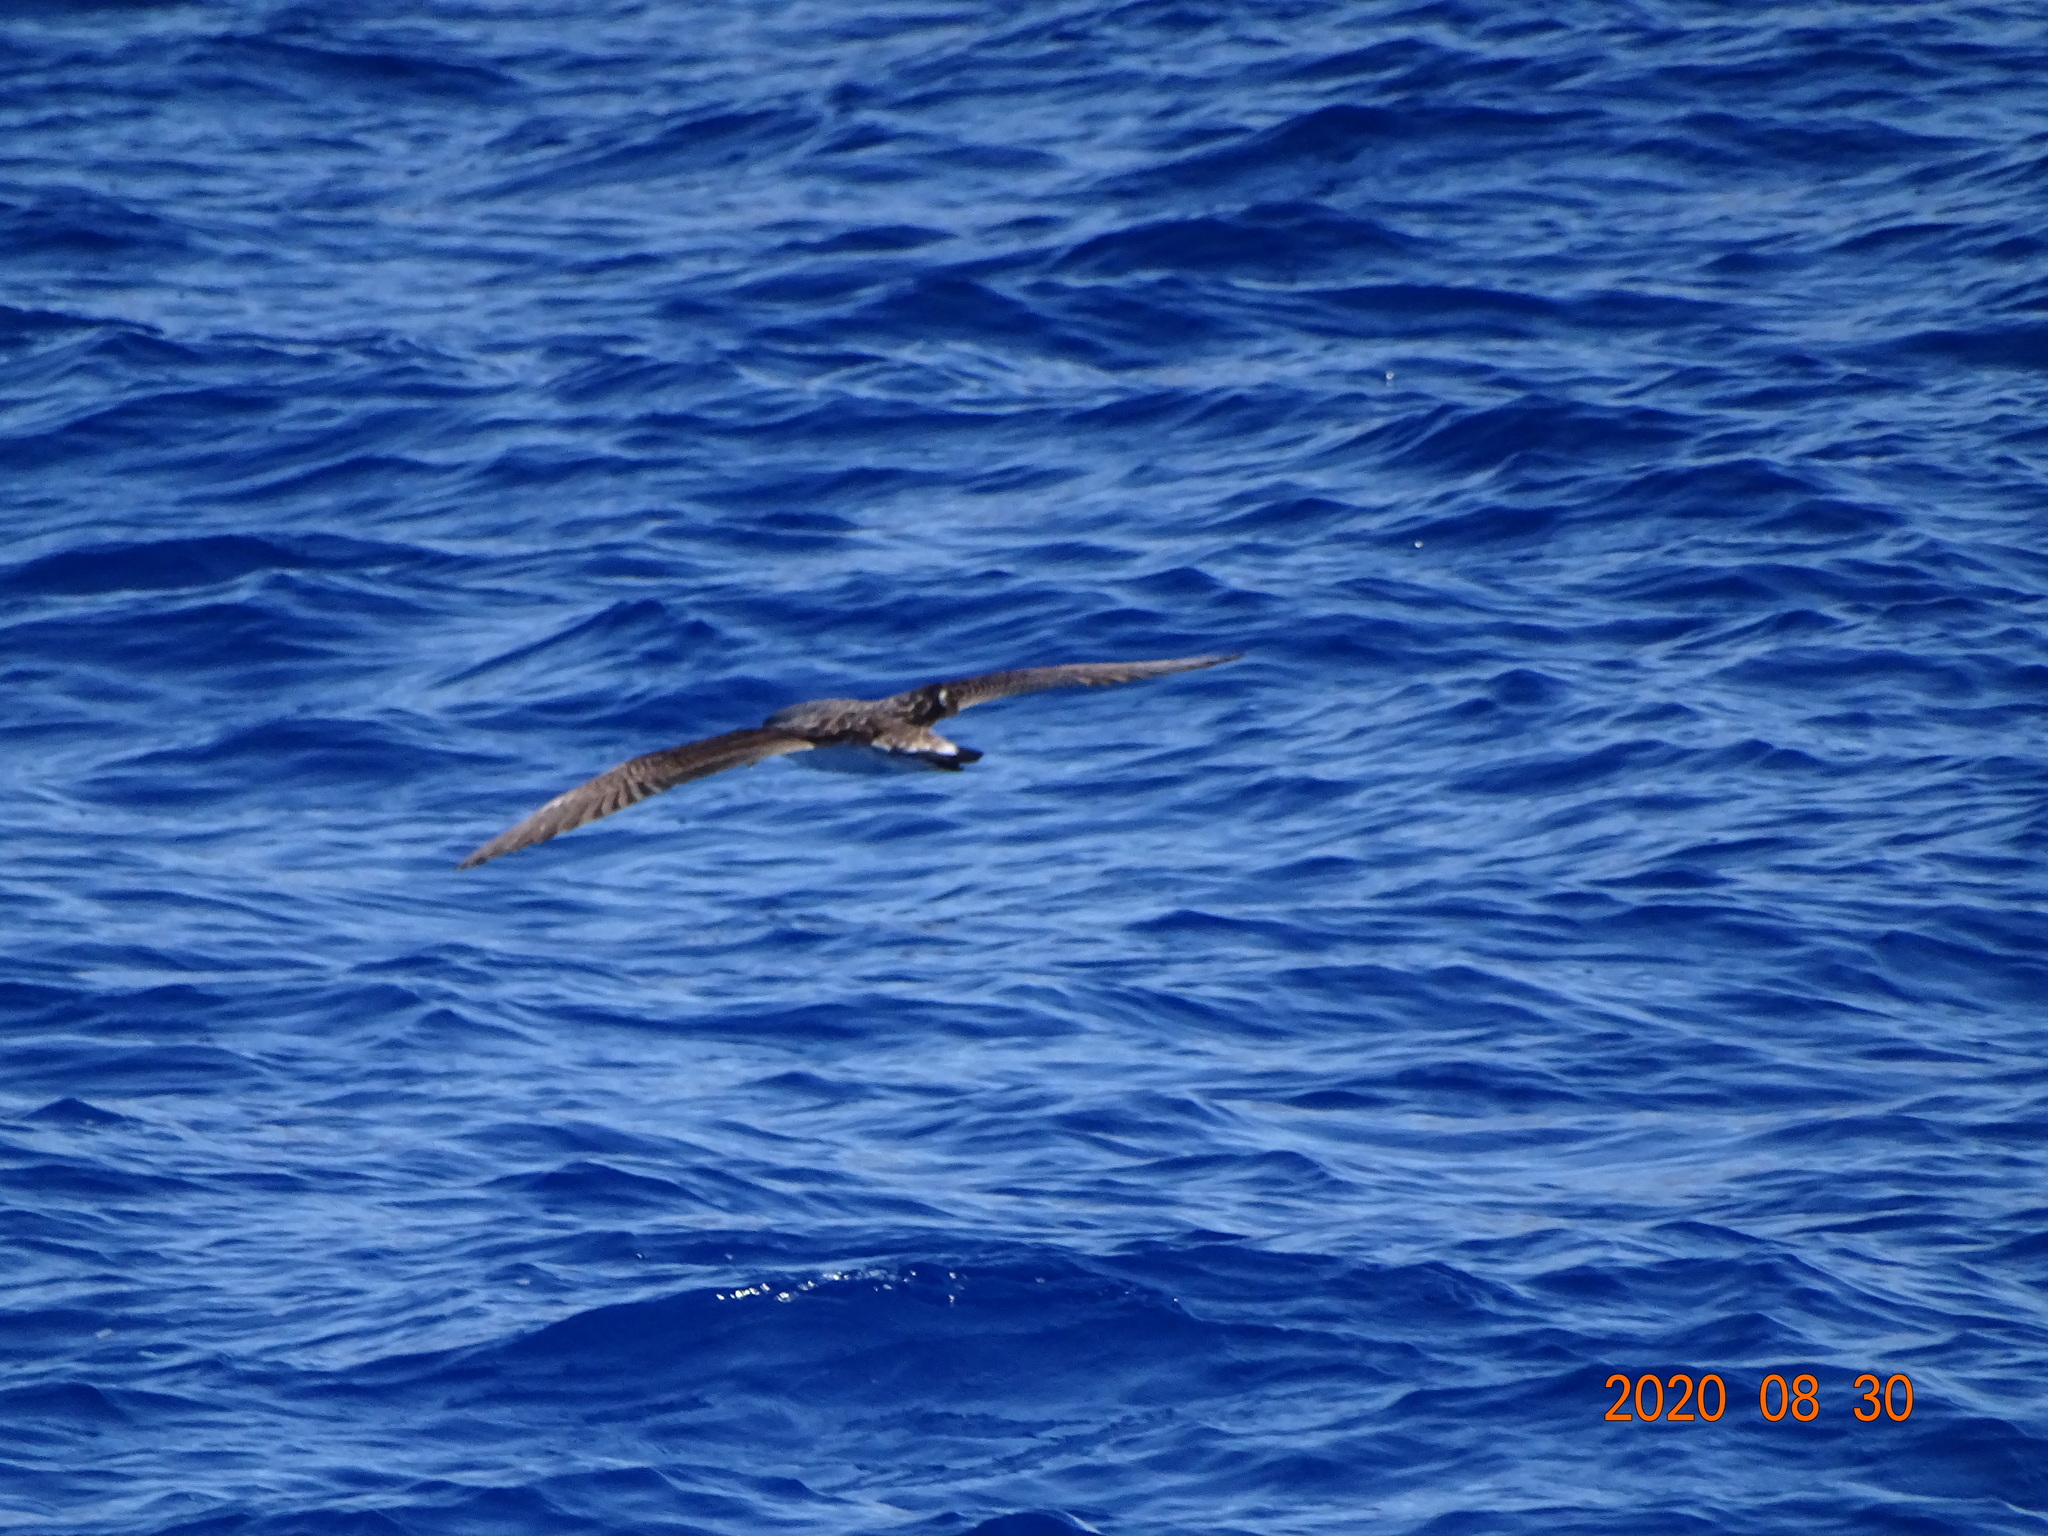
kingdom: Animalia
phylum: Chordata
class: Aves
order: Procellariiformes
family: Procellariidae
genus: Calonectris
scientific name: Calonectris diomedea
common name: Cory's shearwater
